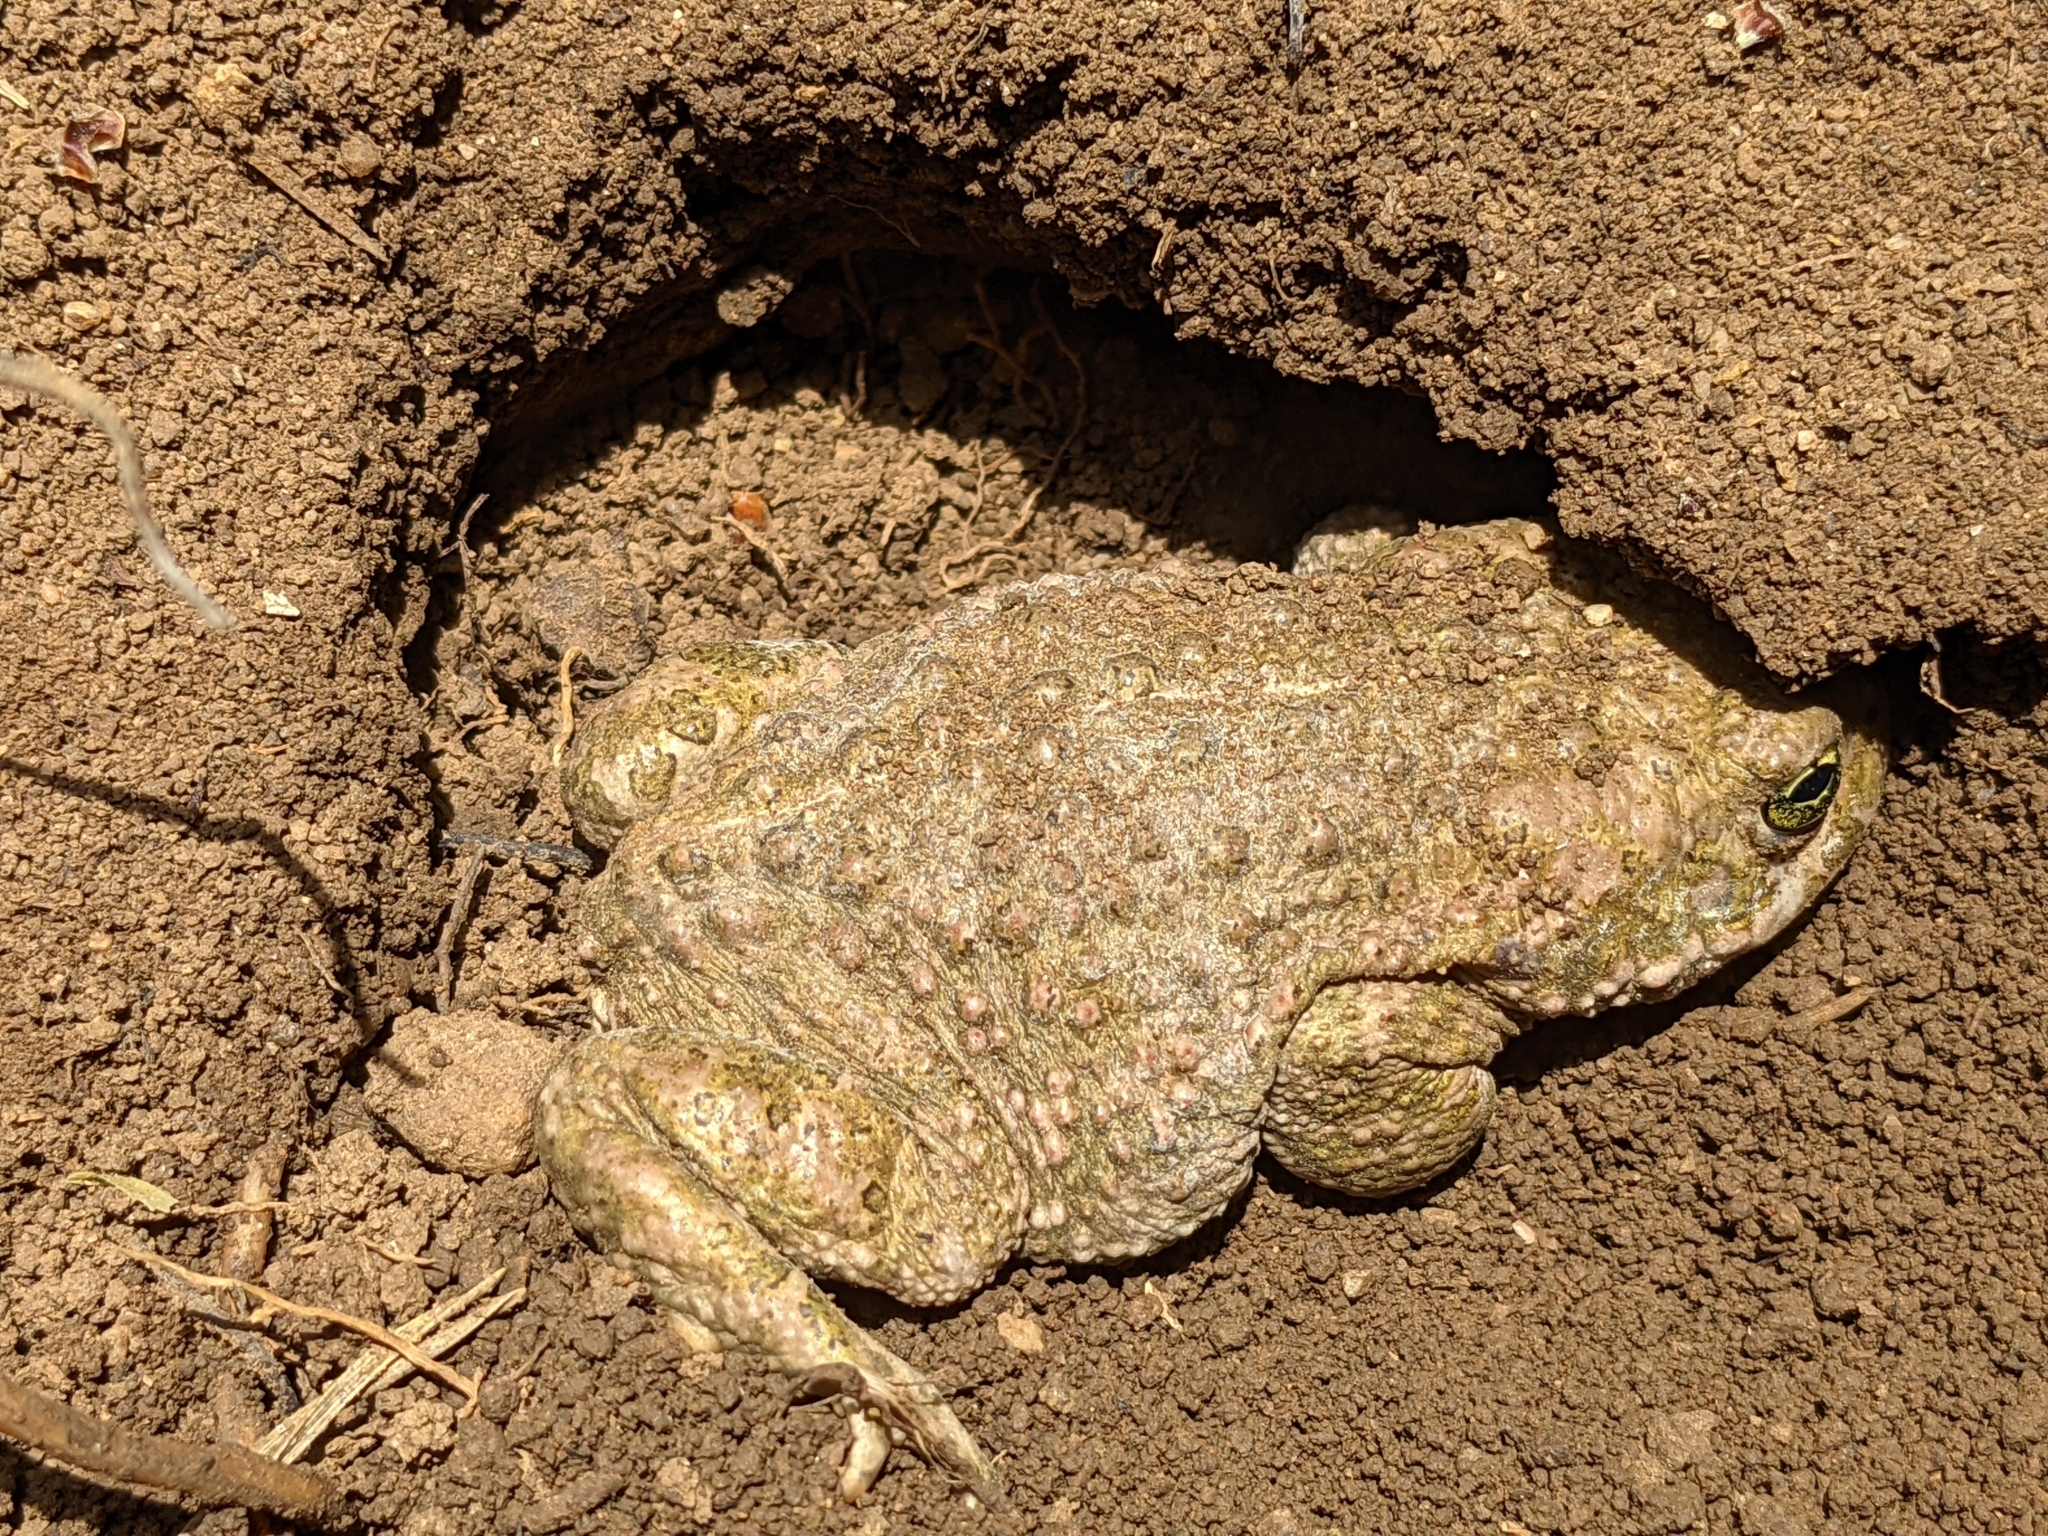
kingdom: Animalia
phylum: Chordata
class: Amphibia
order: Anura
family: Bufonidae
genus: Epidalea
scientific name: Epidalea calamita
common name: Natterjack toad
